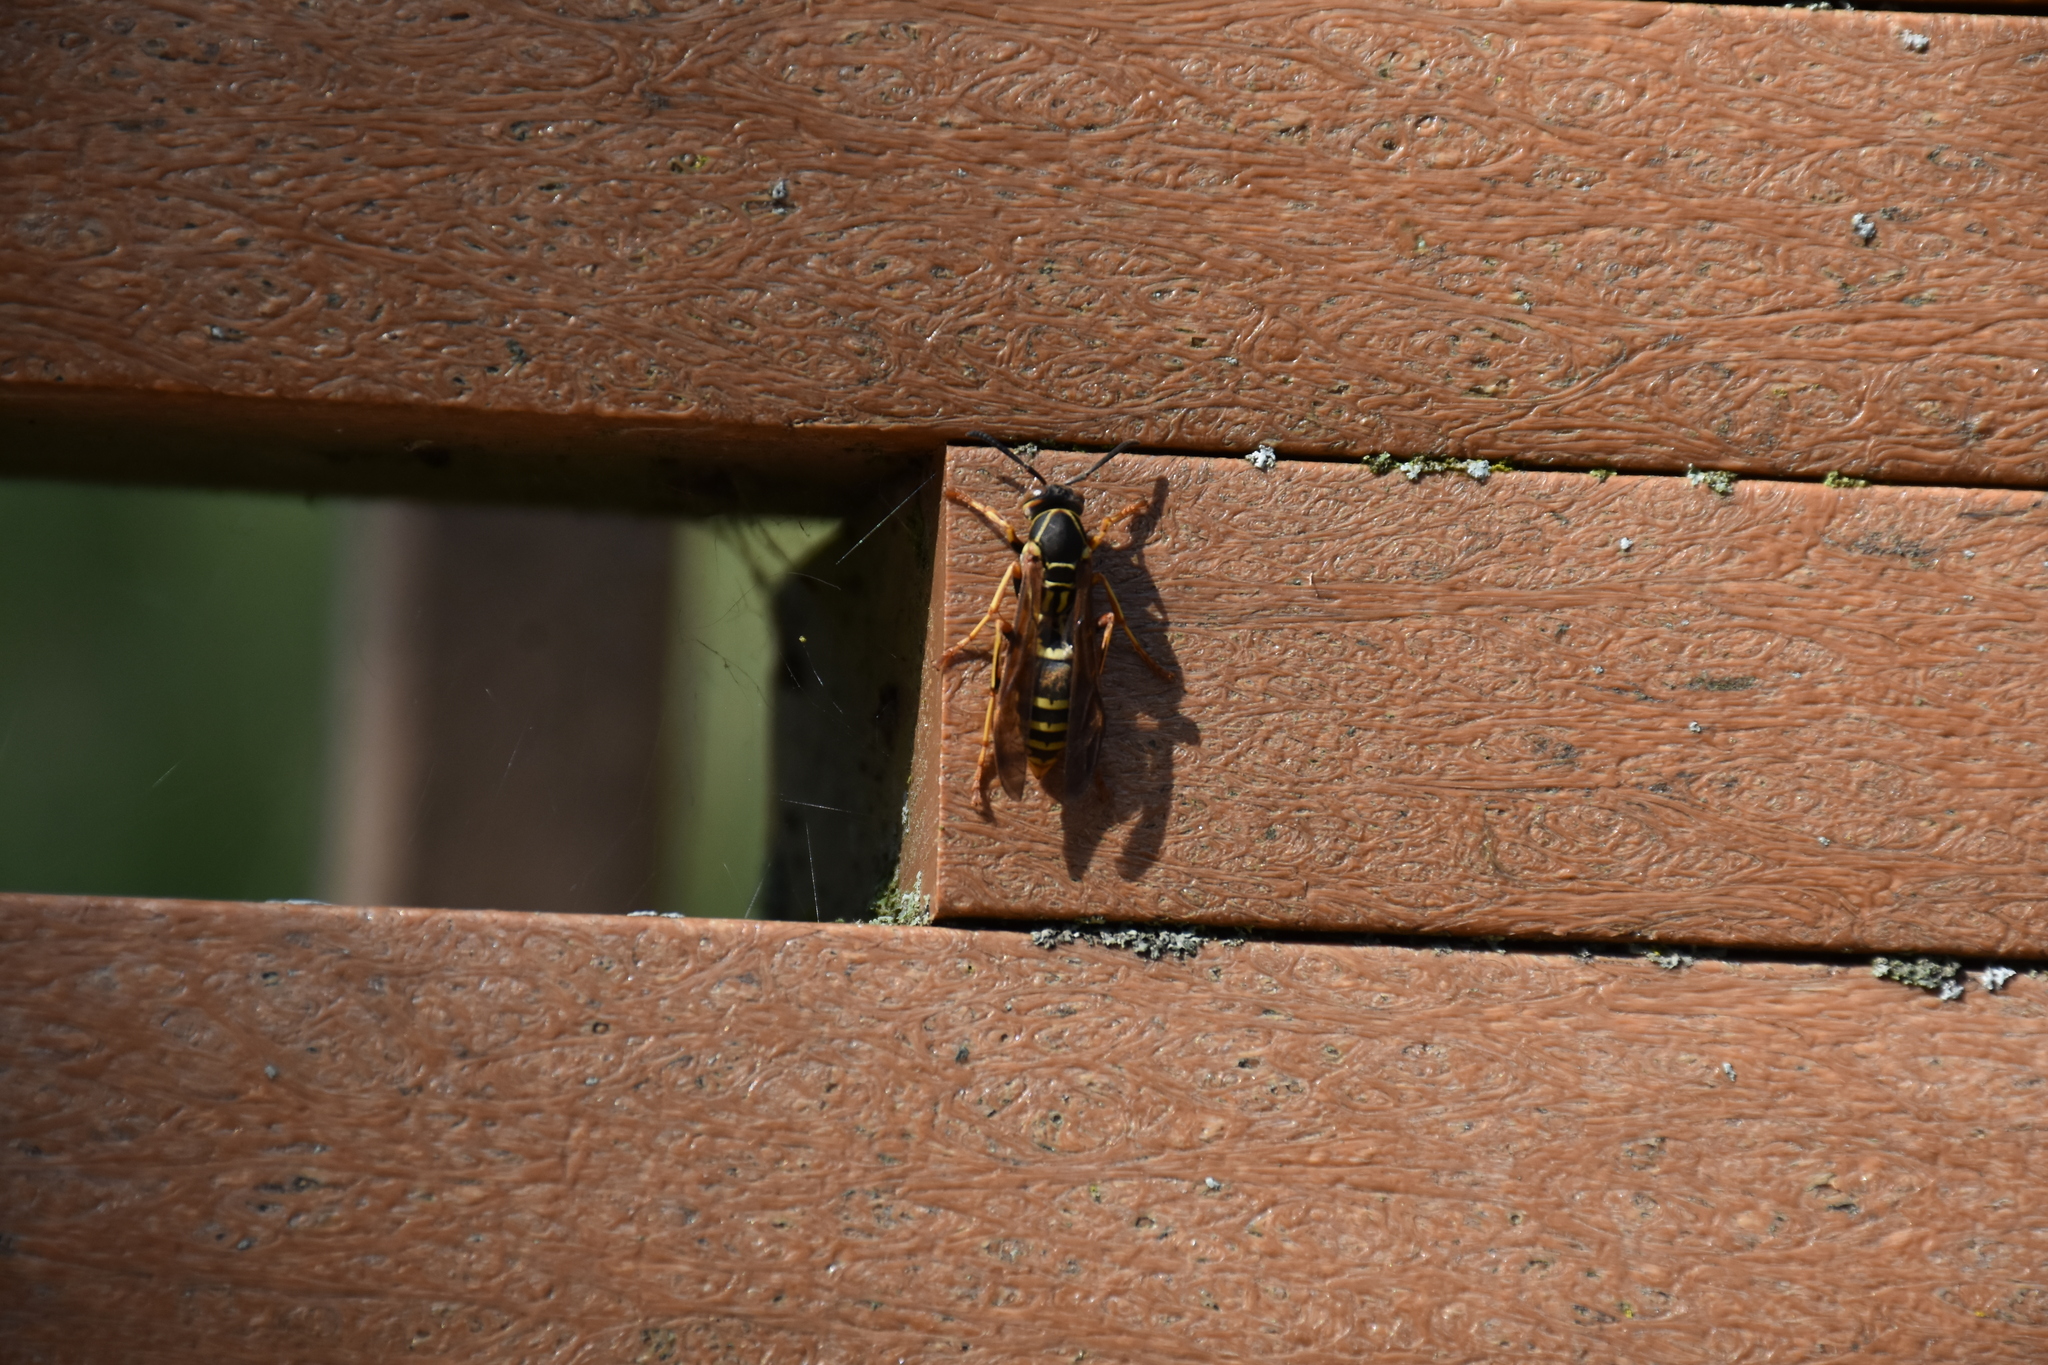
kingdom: Animalia
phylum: Arthropoda
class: Insecta
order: Hymenoptera
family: Eumenidae
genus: Polistes
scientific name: Polistes fuscatus
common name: Dark paper wasp
